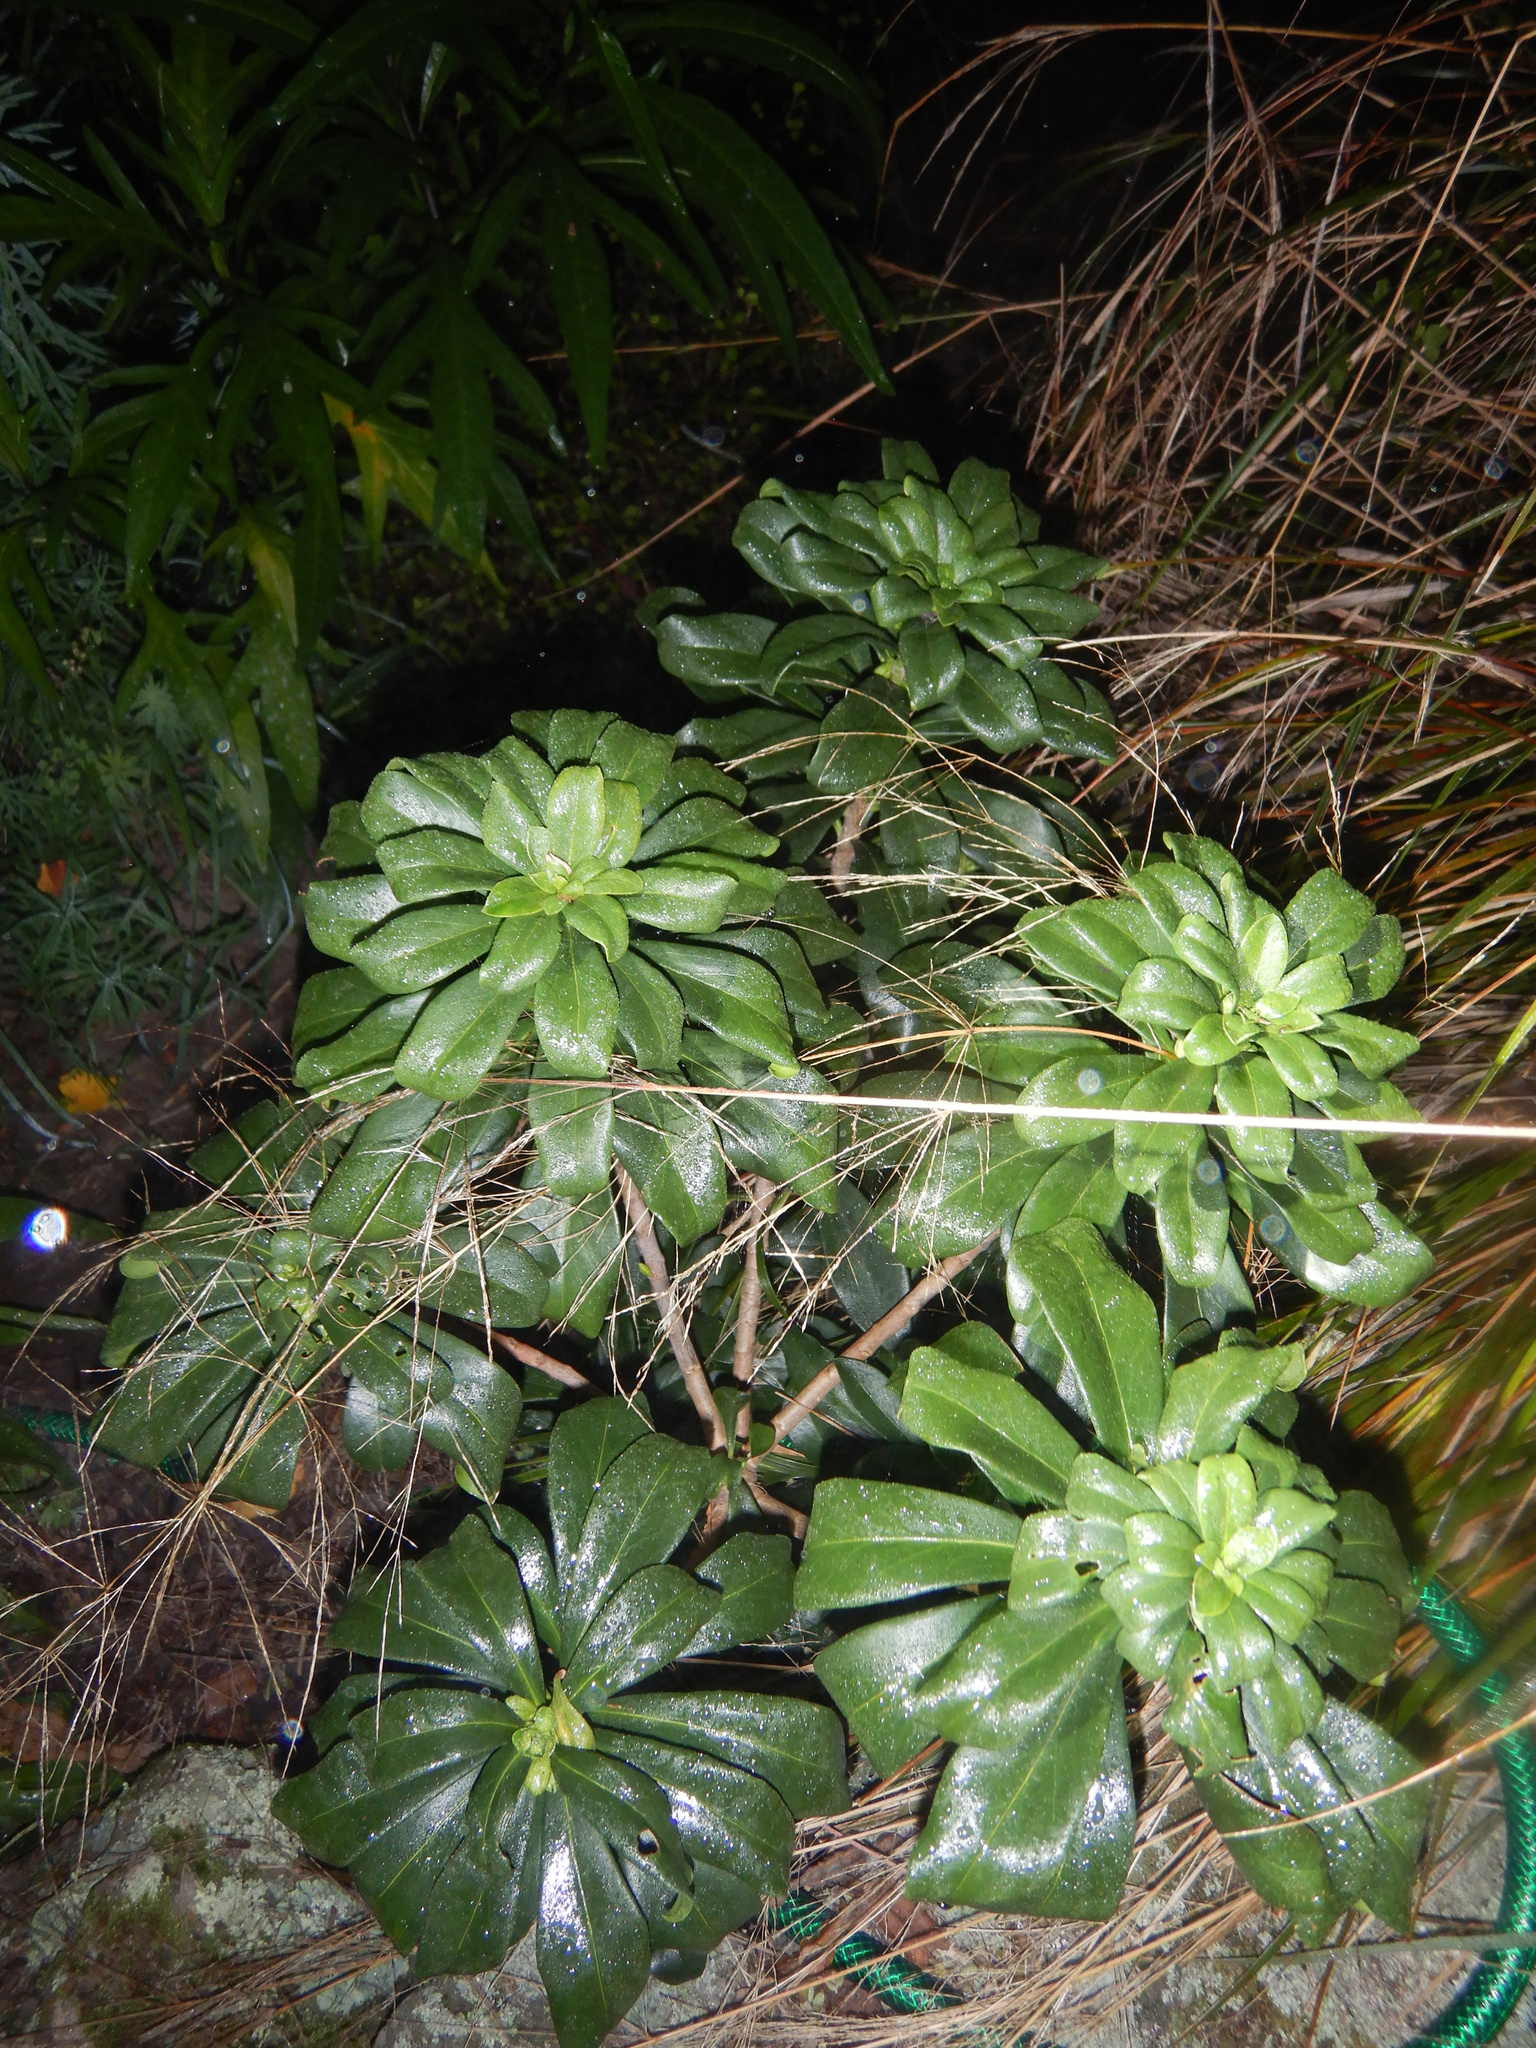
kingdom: Plantae
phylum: Tracheophyta
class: Magnoliopsida
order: Malvales
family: Thymelaeaceae
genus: Daphne
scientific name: Daphne laureola
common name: Spurge-laurel
